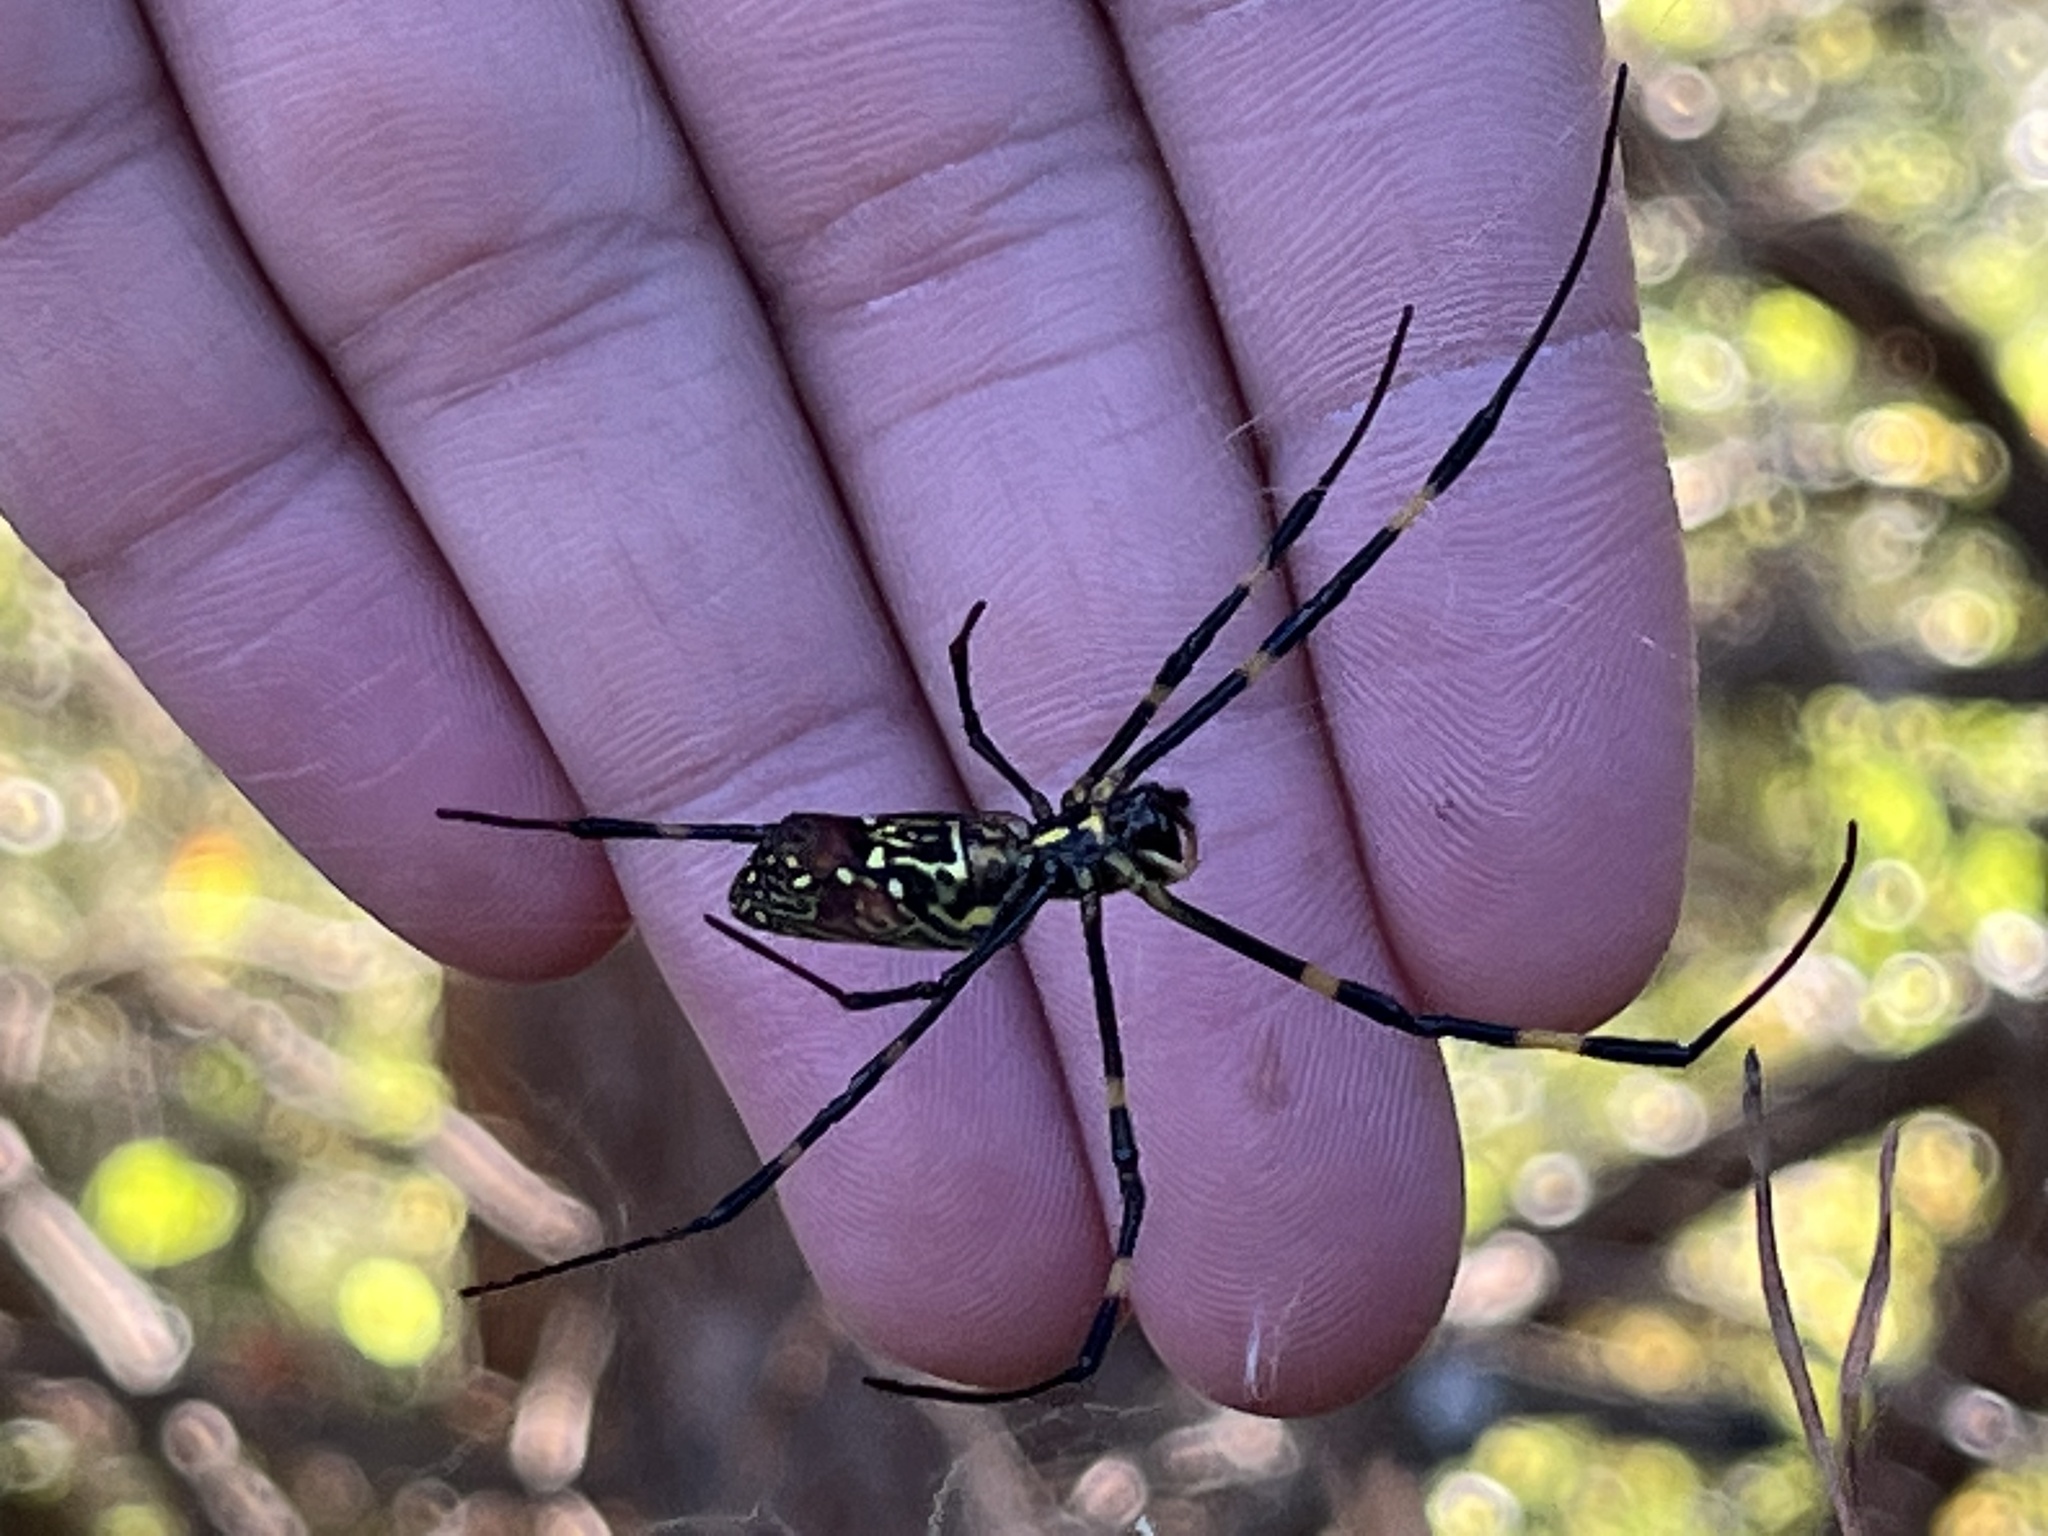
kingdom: Animalia
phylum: Arthropoda
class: Arachnida
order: Araneae
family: Araneidae
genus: Trichonephila
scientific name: Trichonephila clavata
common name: Jorō spider
